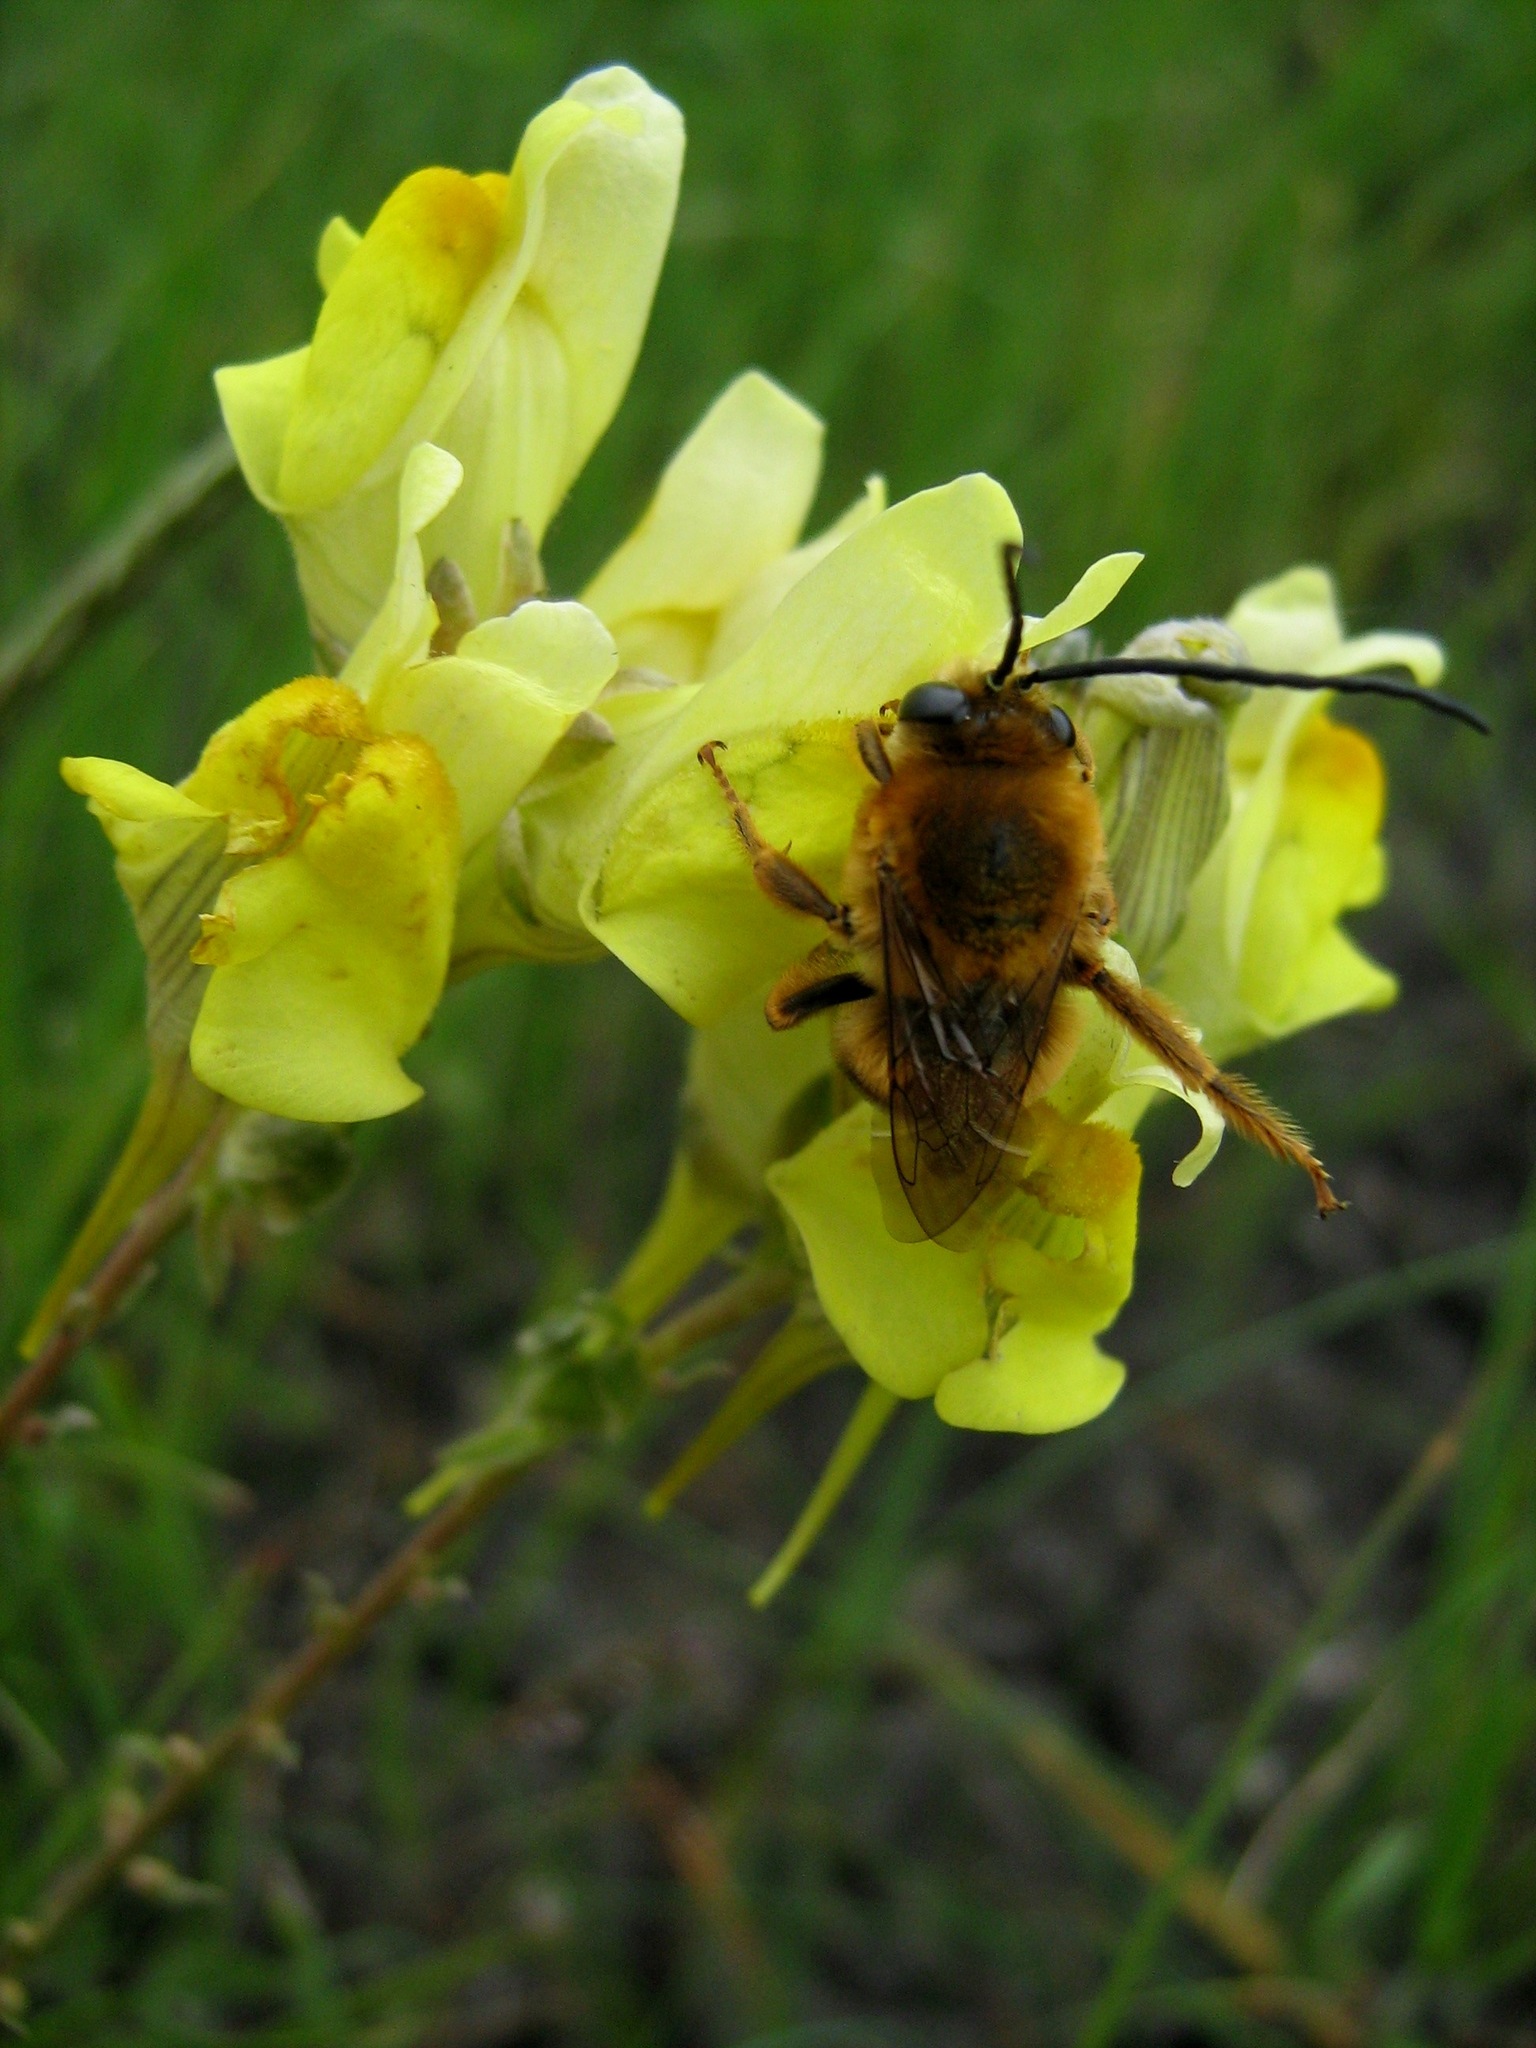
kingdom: Animalia
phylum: Arthropoda
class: Insecta
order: Hymenoptera
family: Apidae
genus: Eucera
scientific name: Eucera longicornis
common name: Long-horned bee
